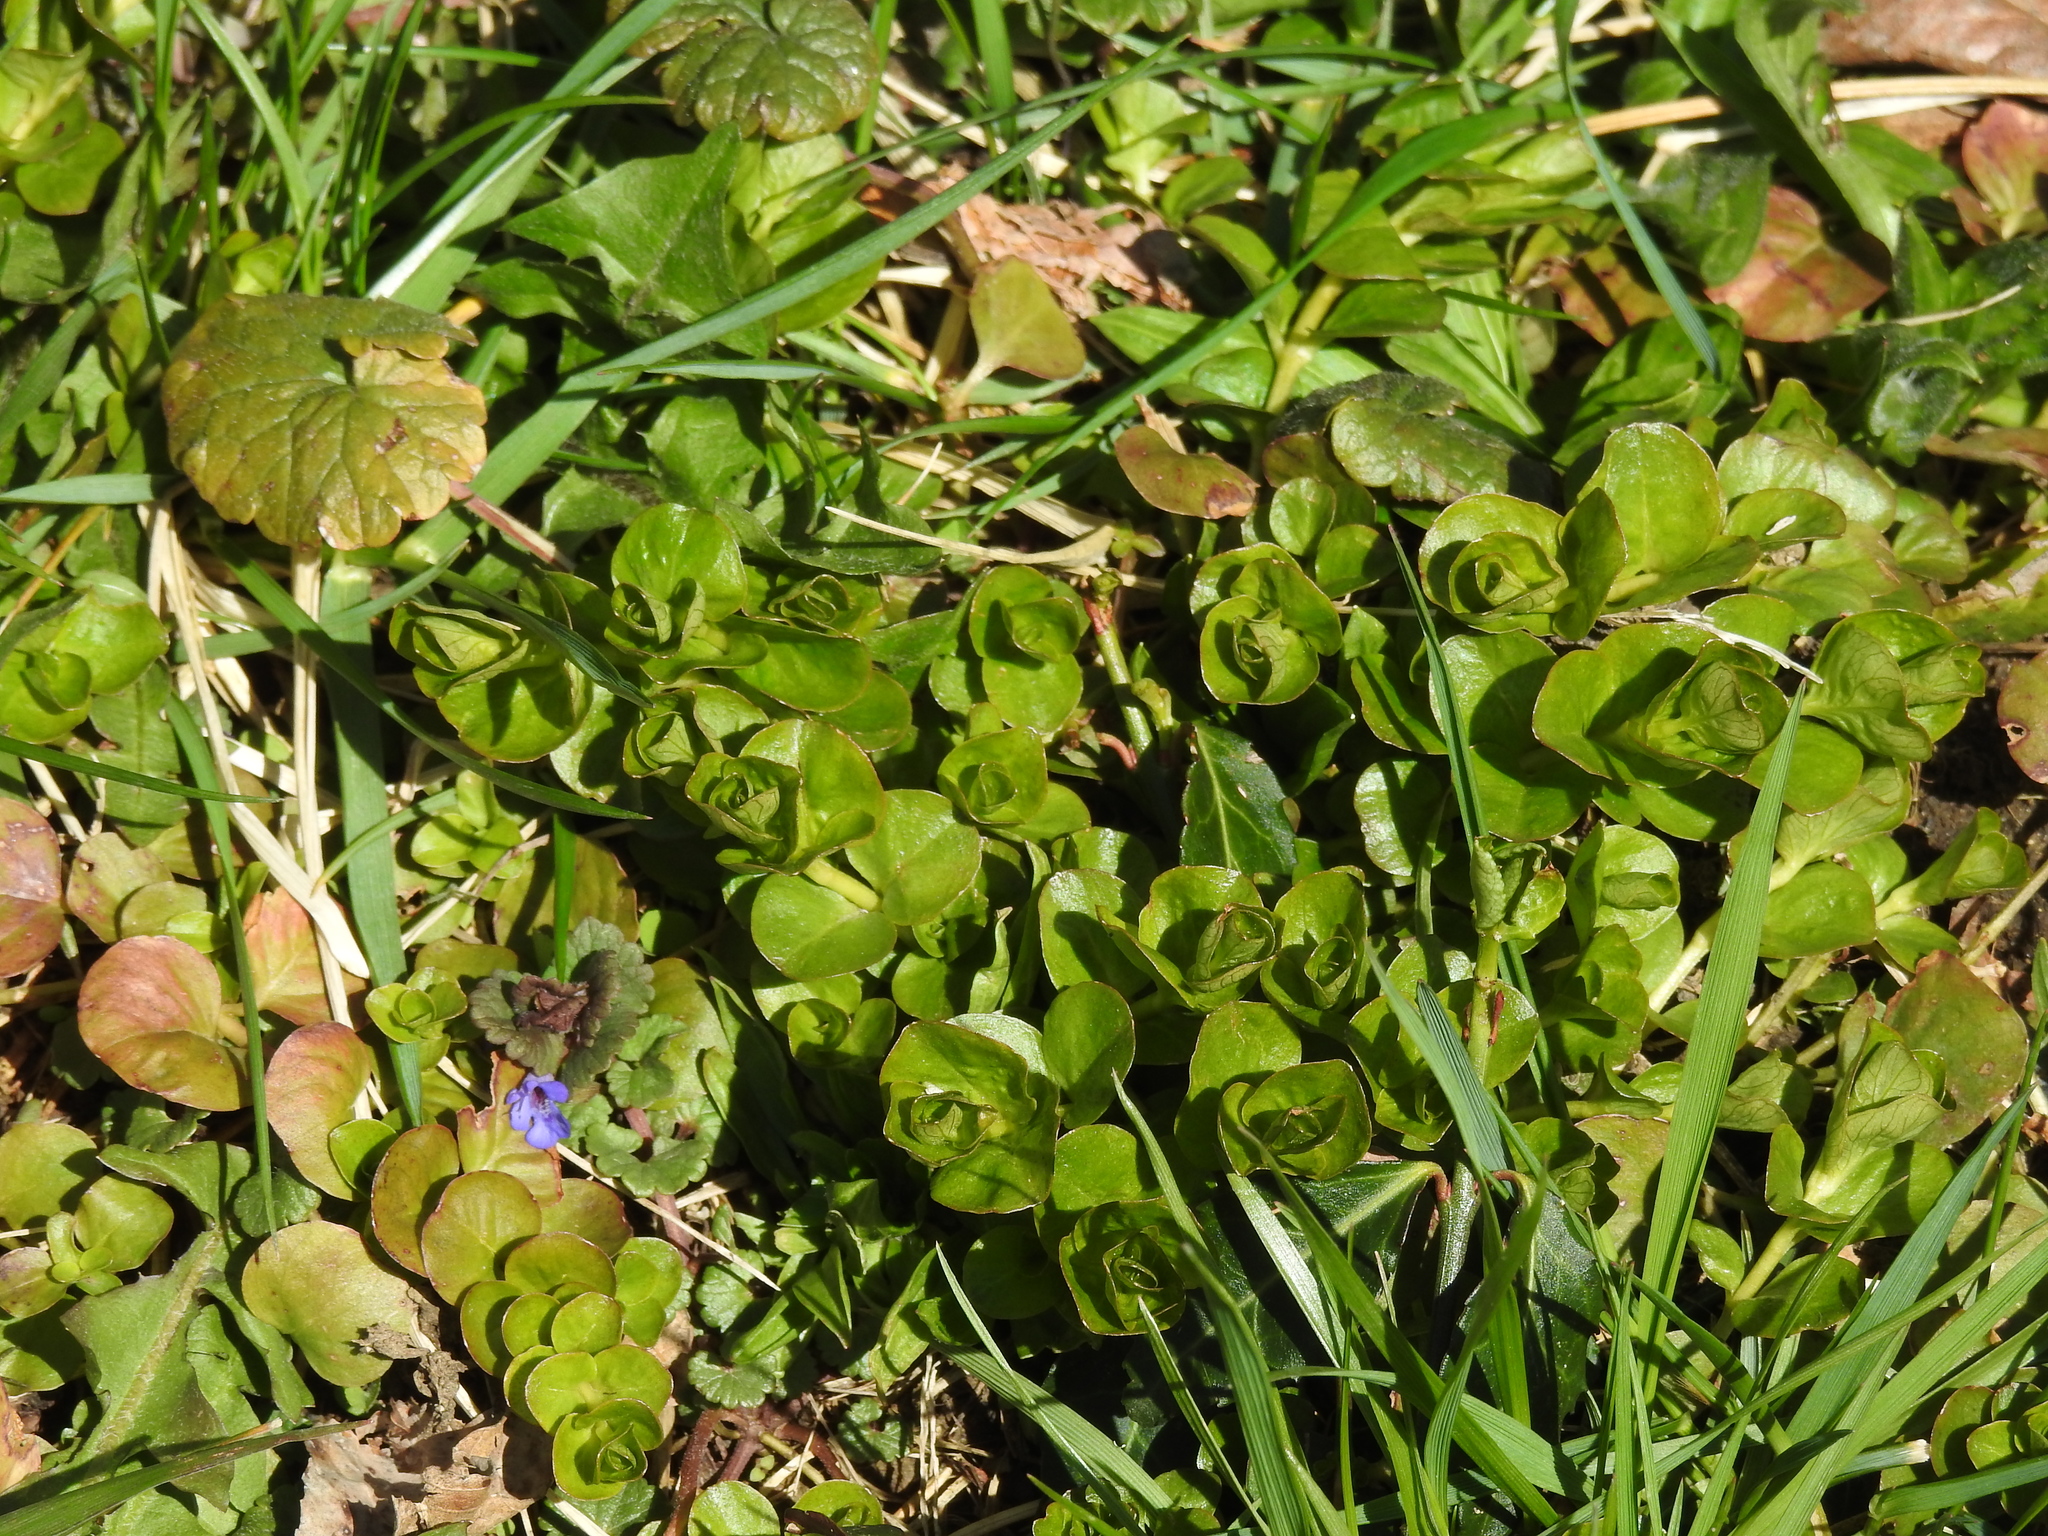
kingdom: Plantae
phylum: Tracheophyta
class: Magnoliopsida
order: Ericales
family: Primulaceae
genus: Lysimachia
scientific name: Lysimachia nummularia
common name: Moneywort
